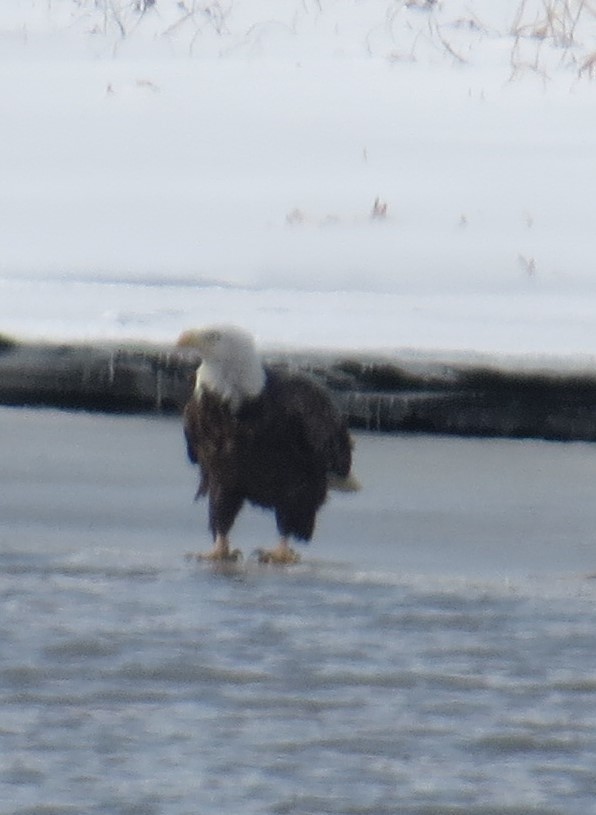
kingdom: Animalia
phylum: Chordata
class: Aves
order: Accipitriformes
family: Accipitridae
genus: Haliaeetus
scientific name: Haliaeetus leucocephalus
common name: Bald eagle
